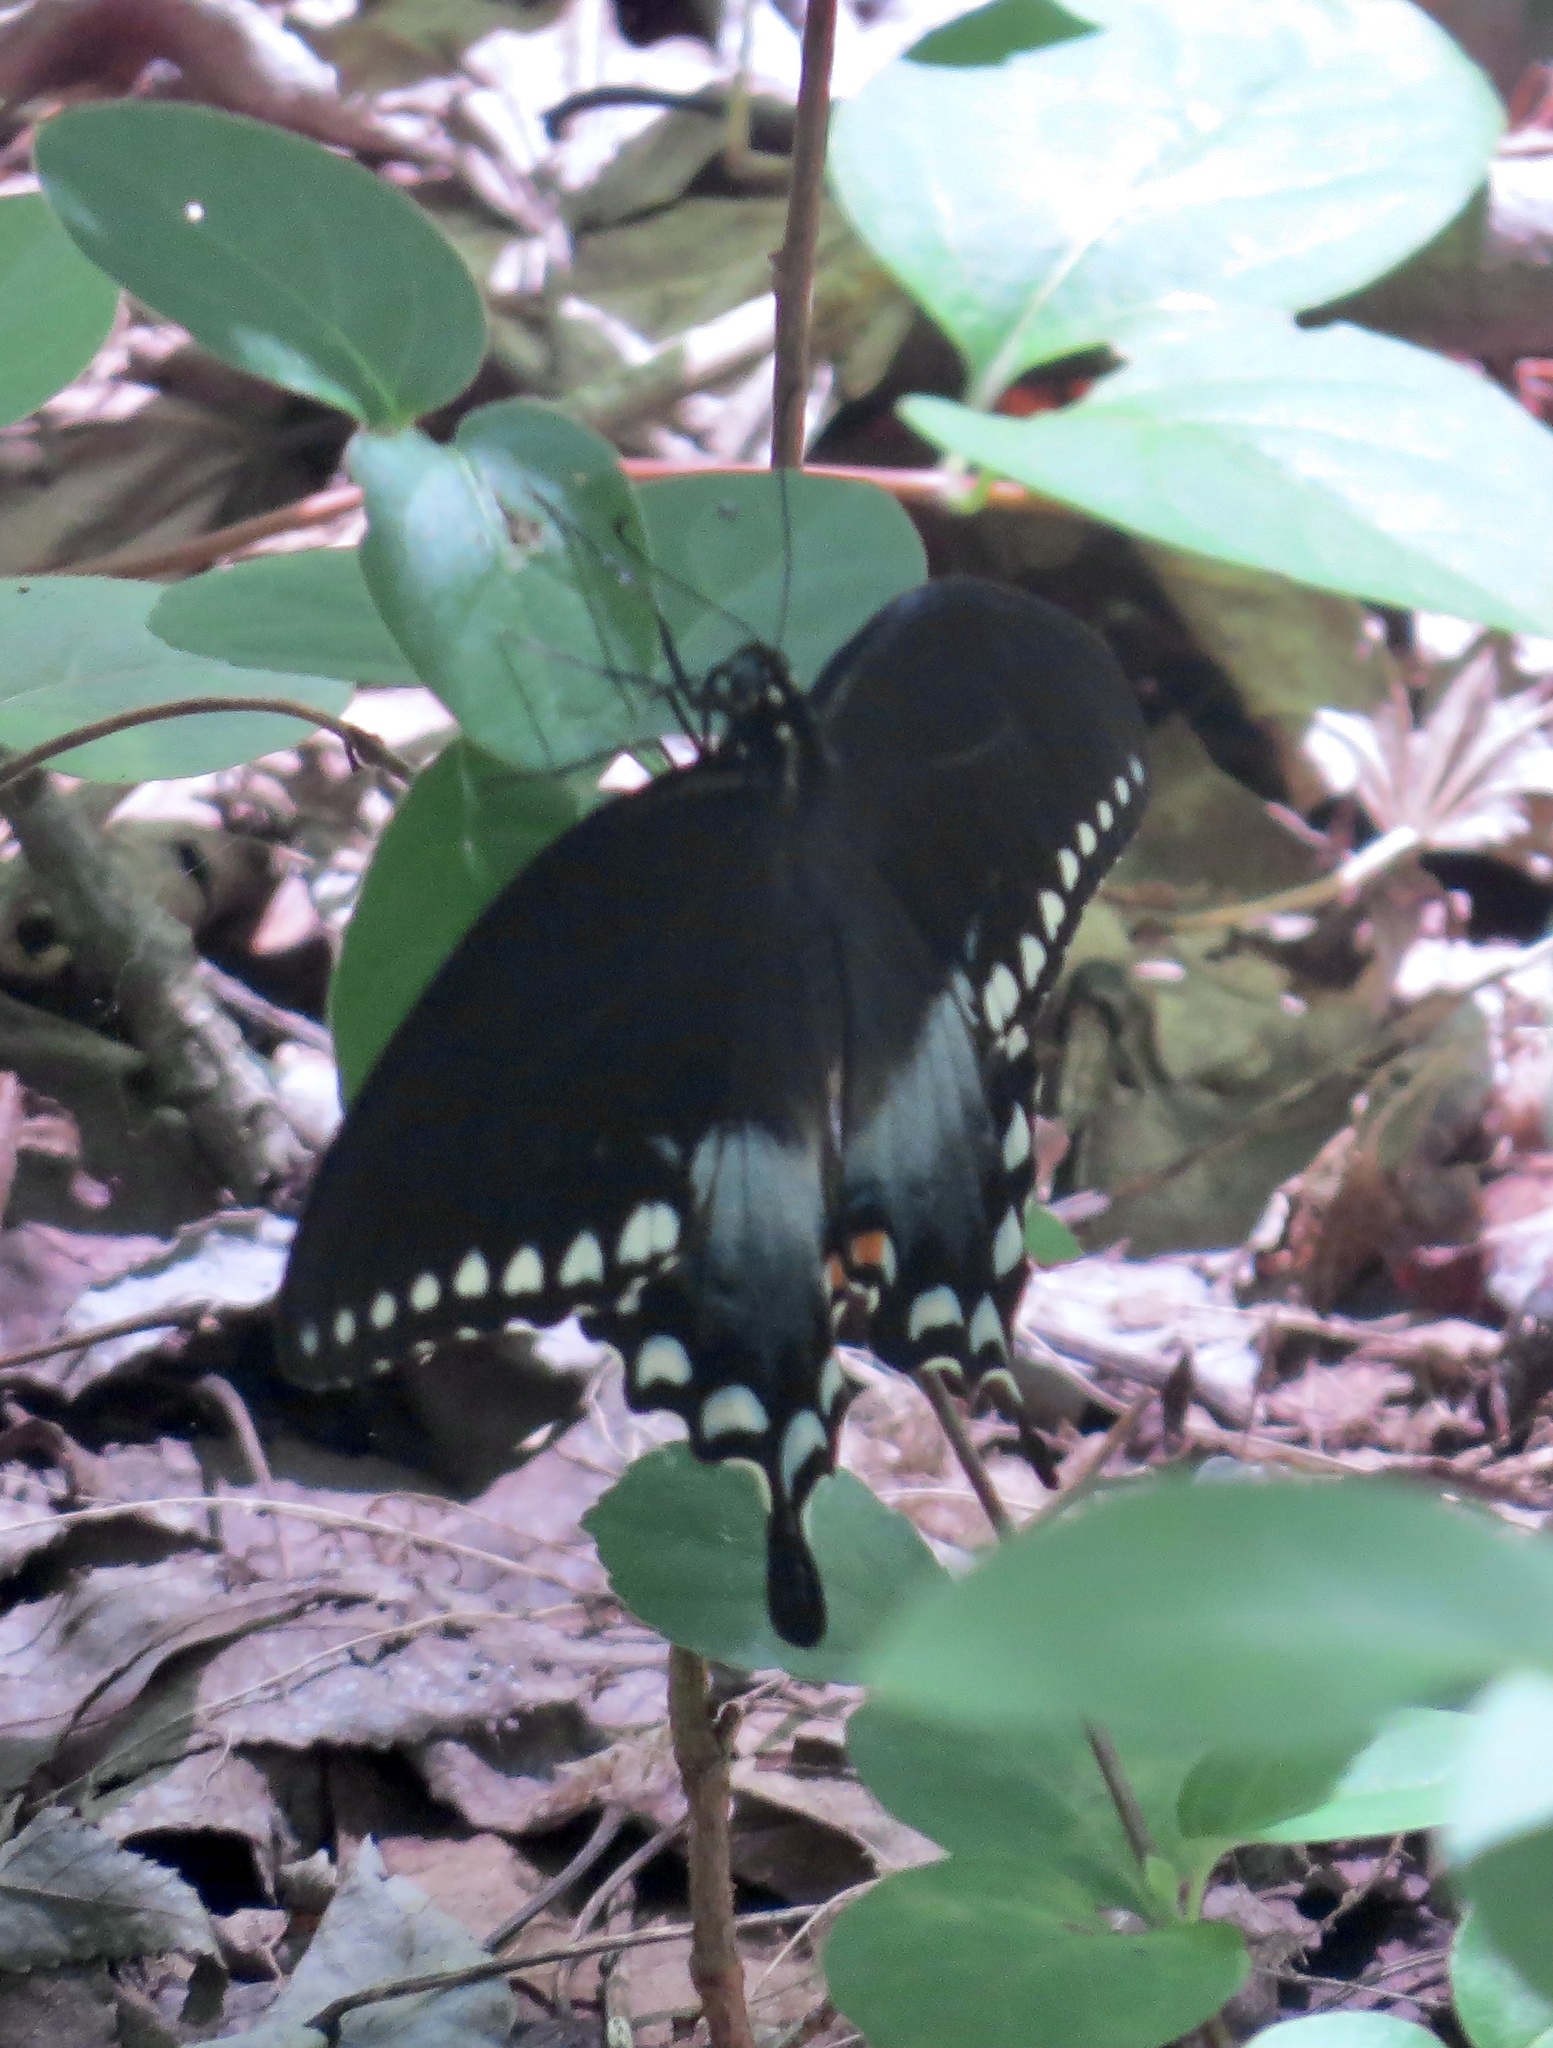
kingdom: Animalia
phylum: Arthropoda
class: Insecta
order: Lepidoptera
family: Papilionidae
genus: Papilio
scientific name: Papilio troilus
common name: Spicebush swallowtail
